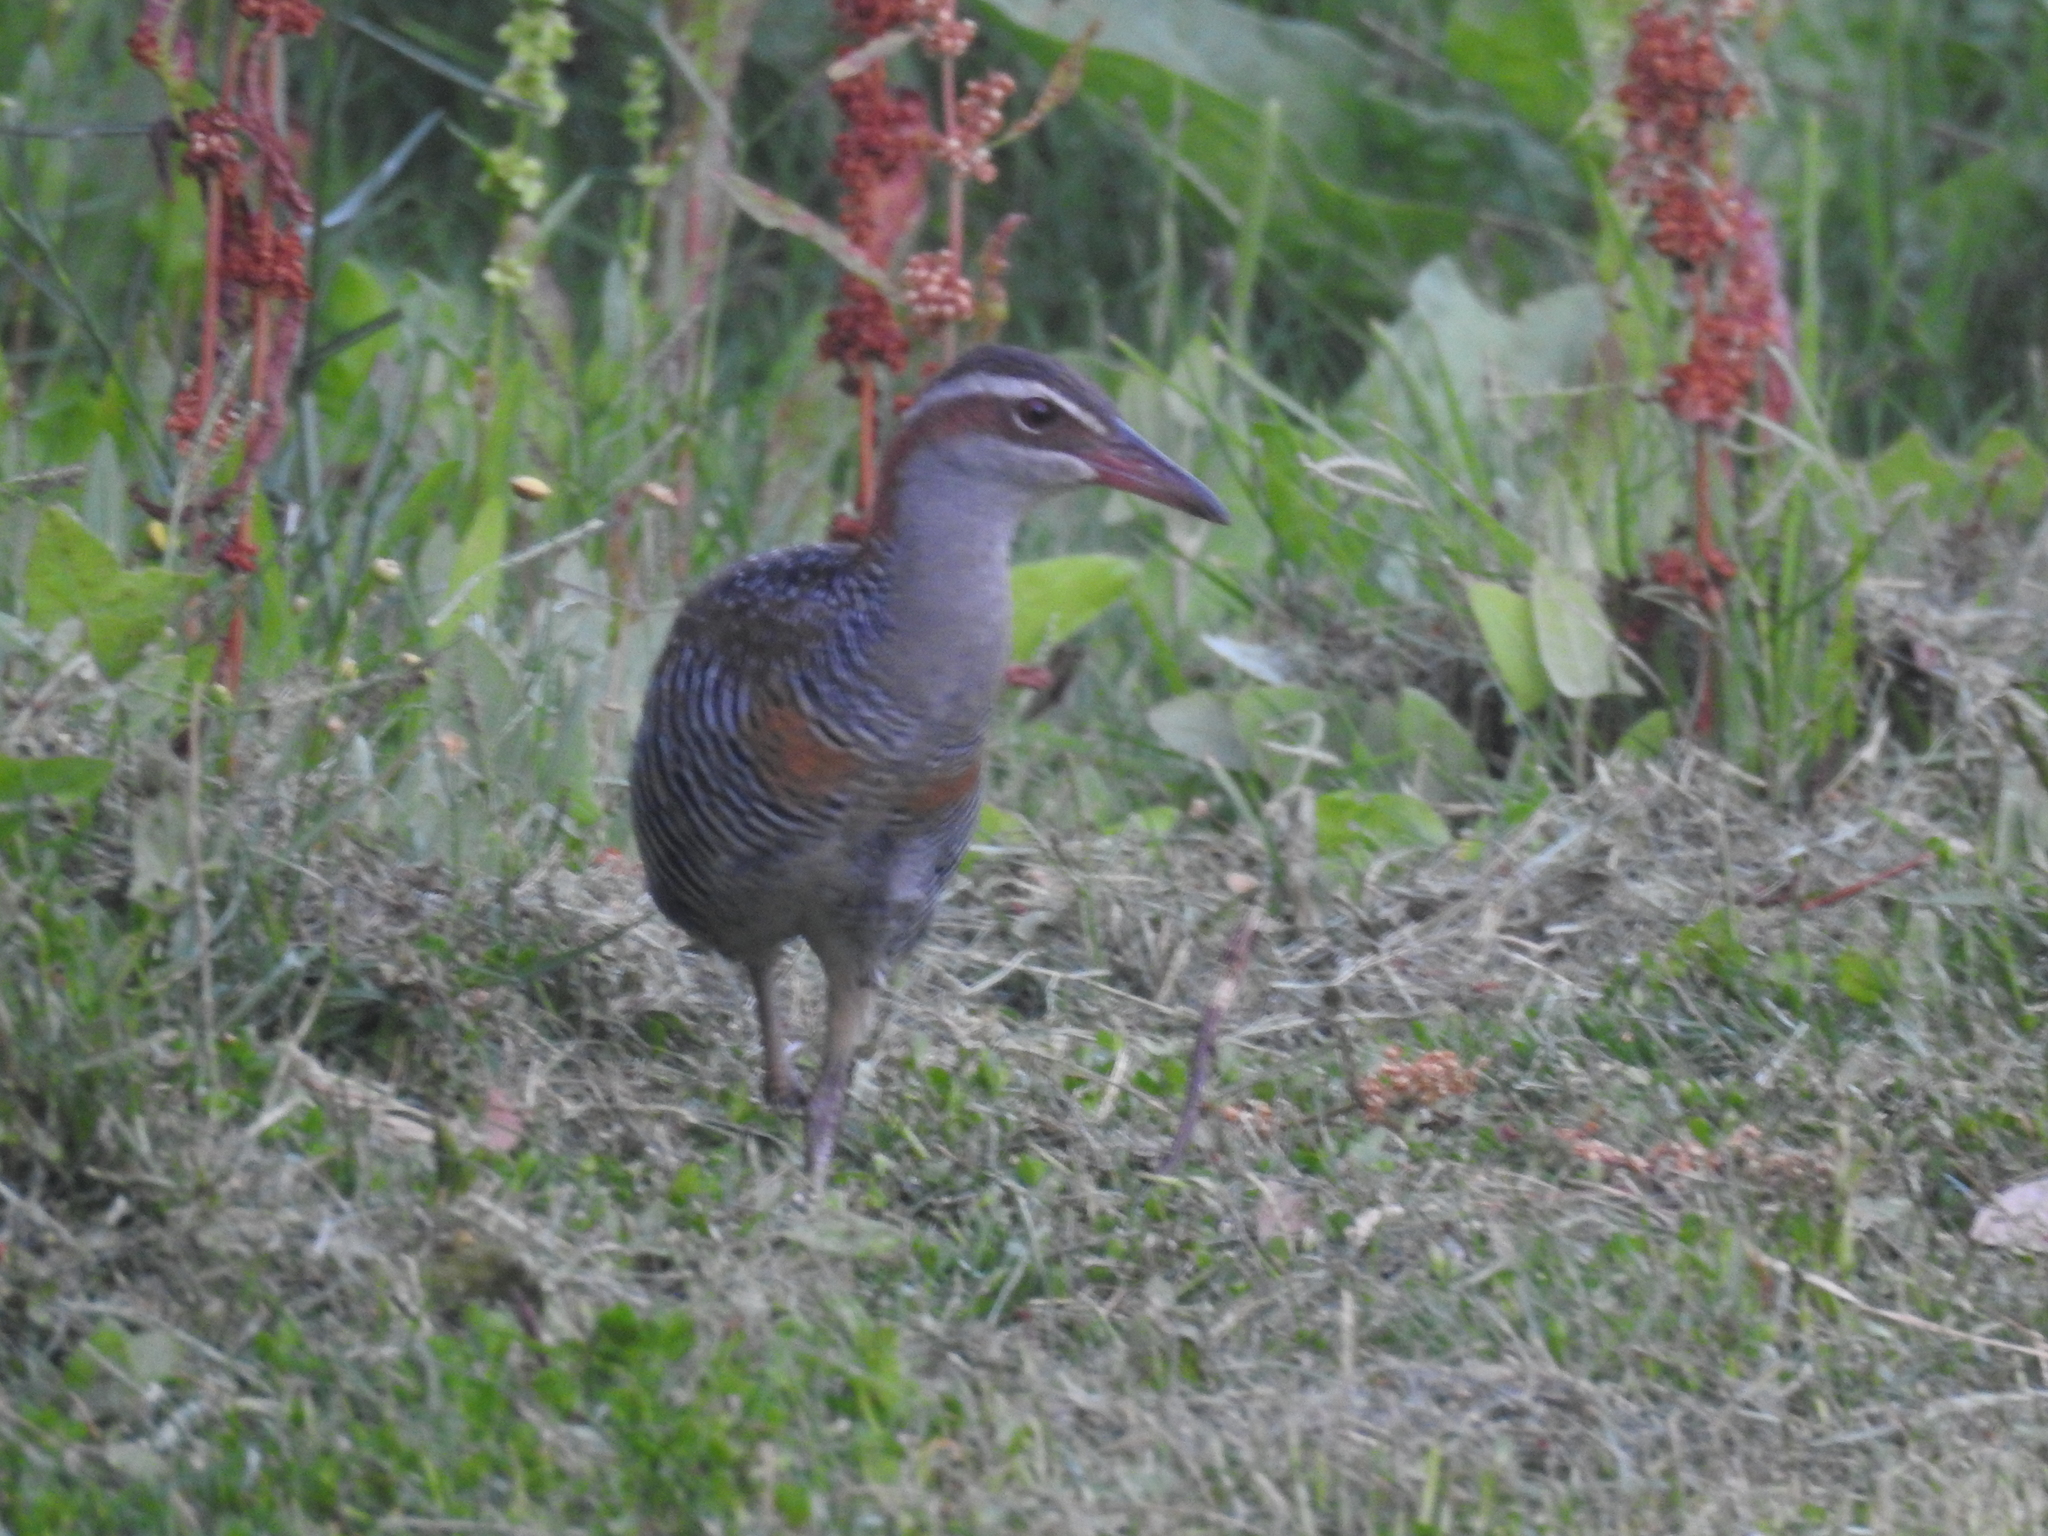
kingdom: Animalia
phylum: Chordata
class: Aves
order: Gruiformes
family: Rallidae
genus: Gallirallus
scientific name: Gallirallus philippensis
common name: Buff-banded rail
